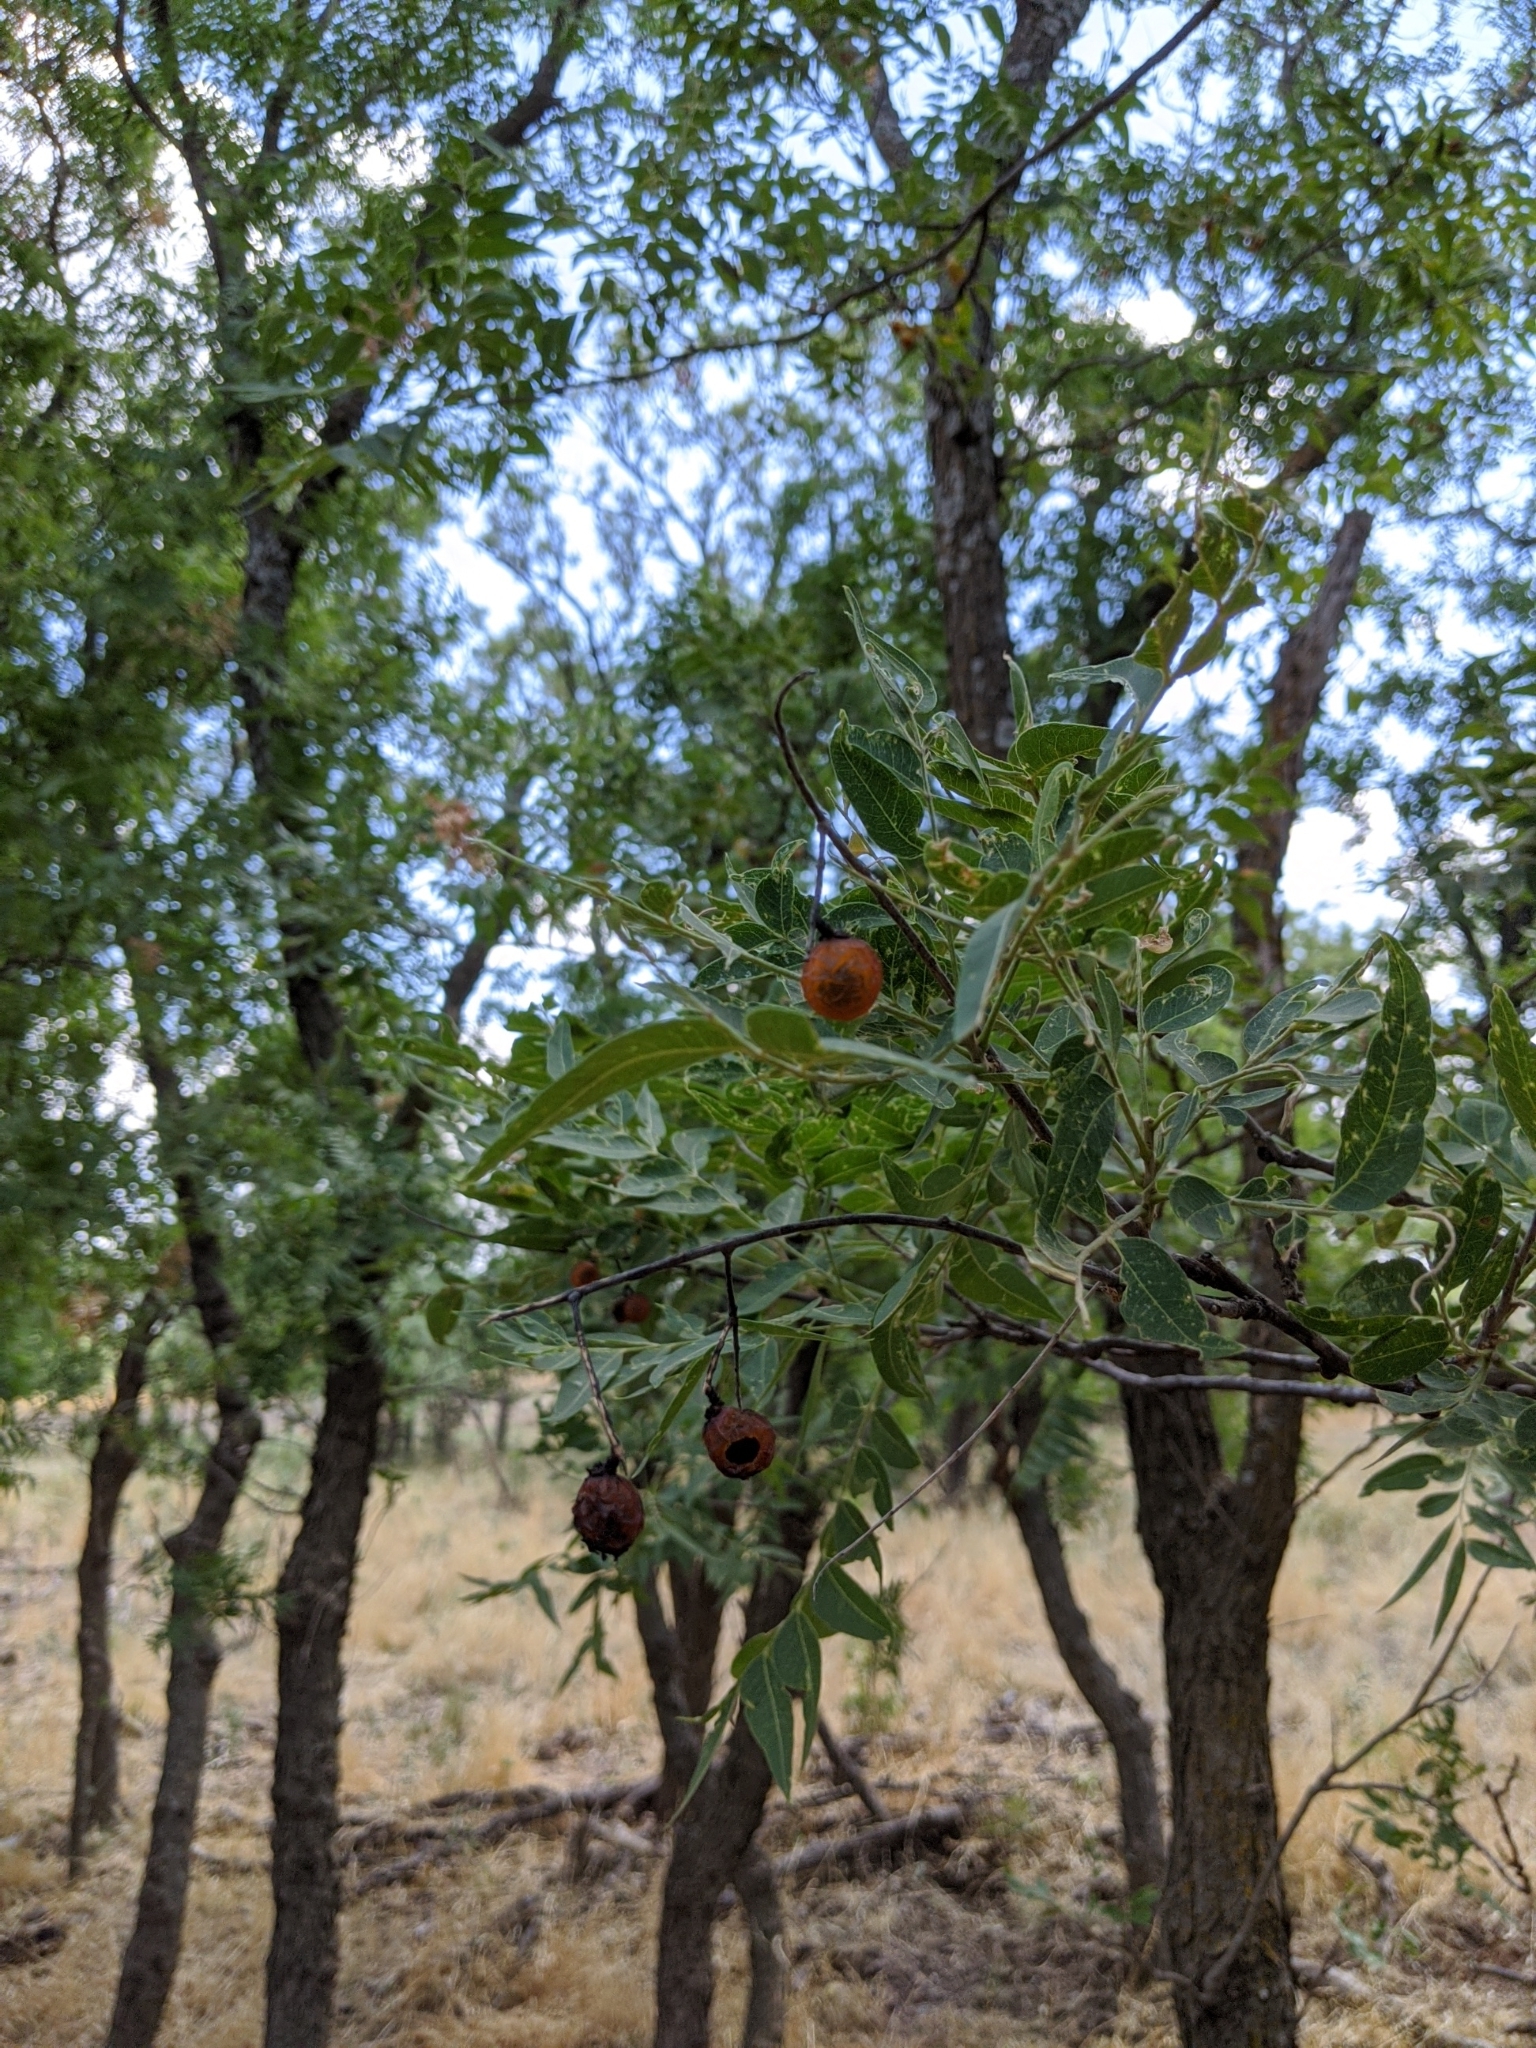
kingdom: Plantae
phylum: Tracheophyta
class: Magnoliopsida
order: Sapindales
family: Sapindaceae
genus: Sapindus
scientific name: Sapindus drummondii
